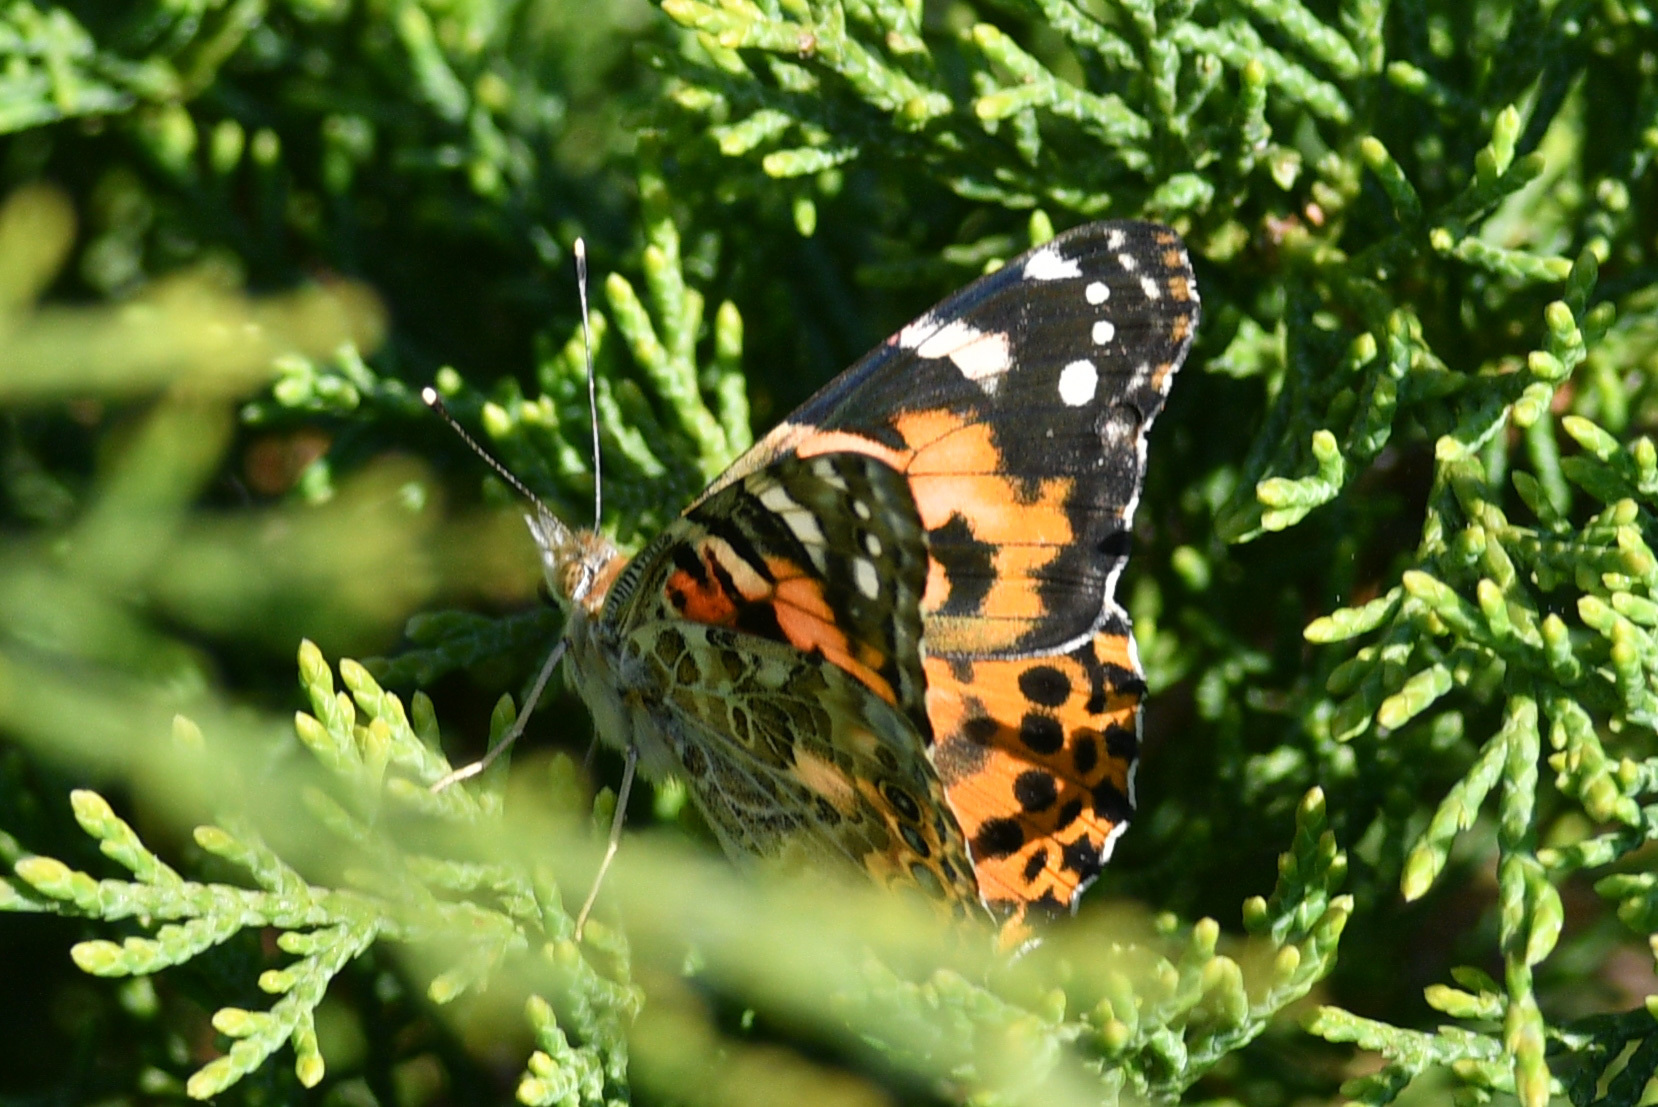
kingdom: Animalia
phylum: Arthropoda
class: Insecta
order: Lepidoptera
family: Nymphalidae
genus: Vanessa
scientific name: Vanessa cardui
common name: Painted lady
